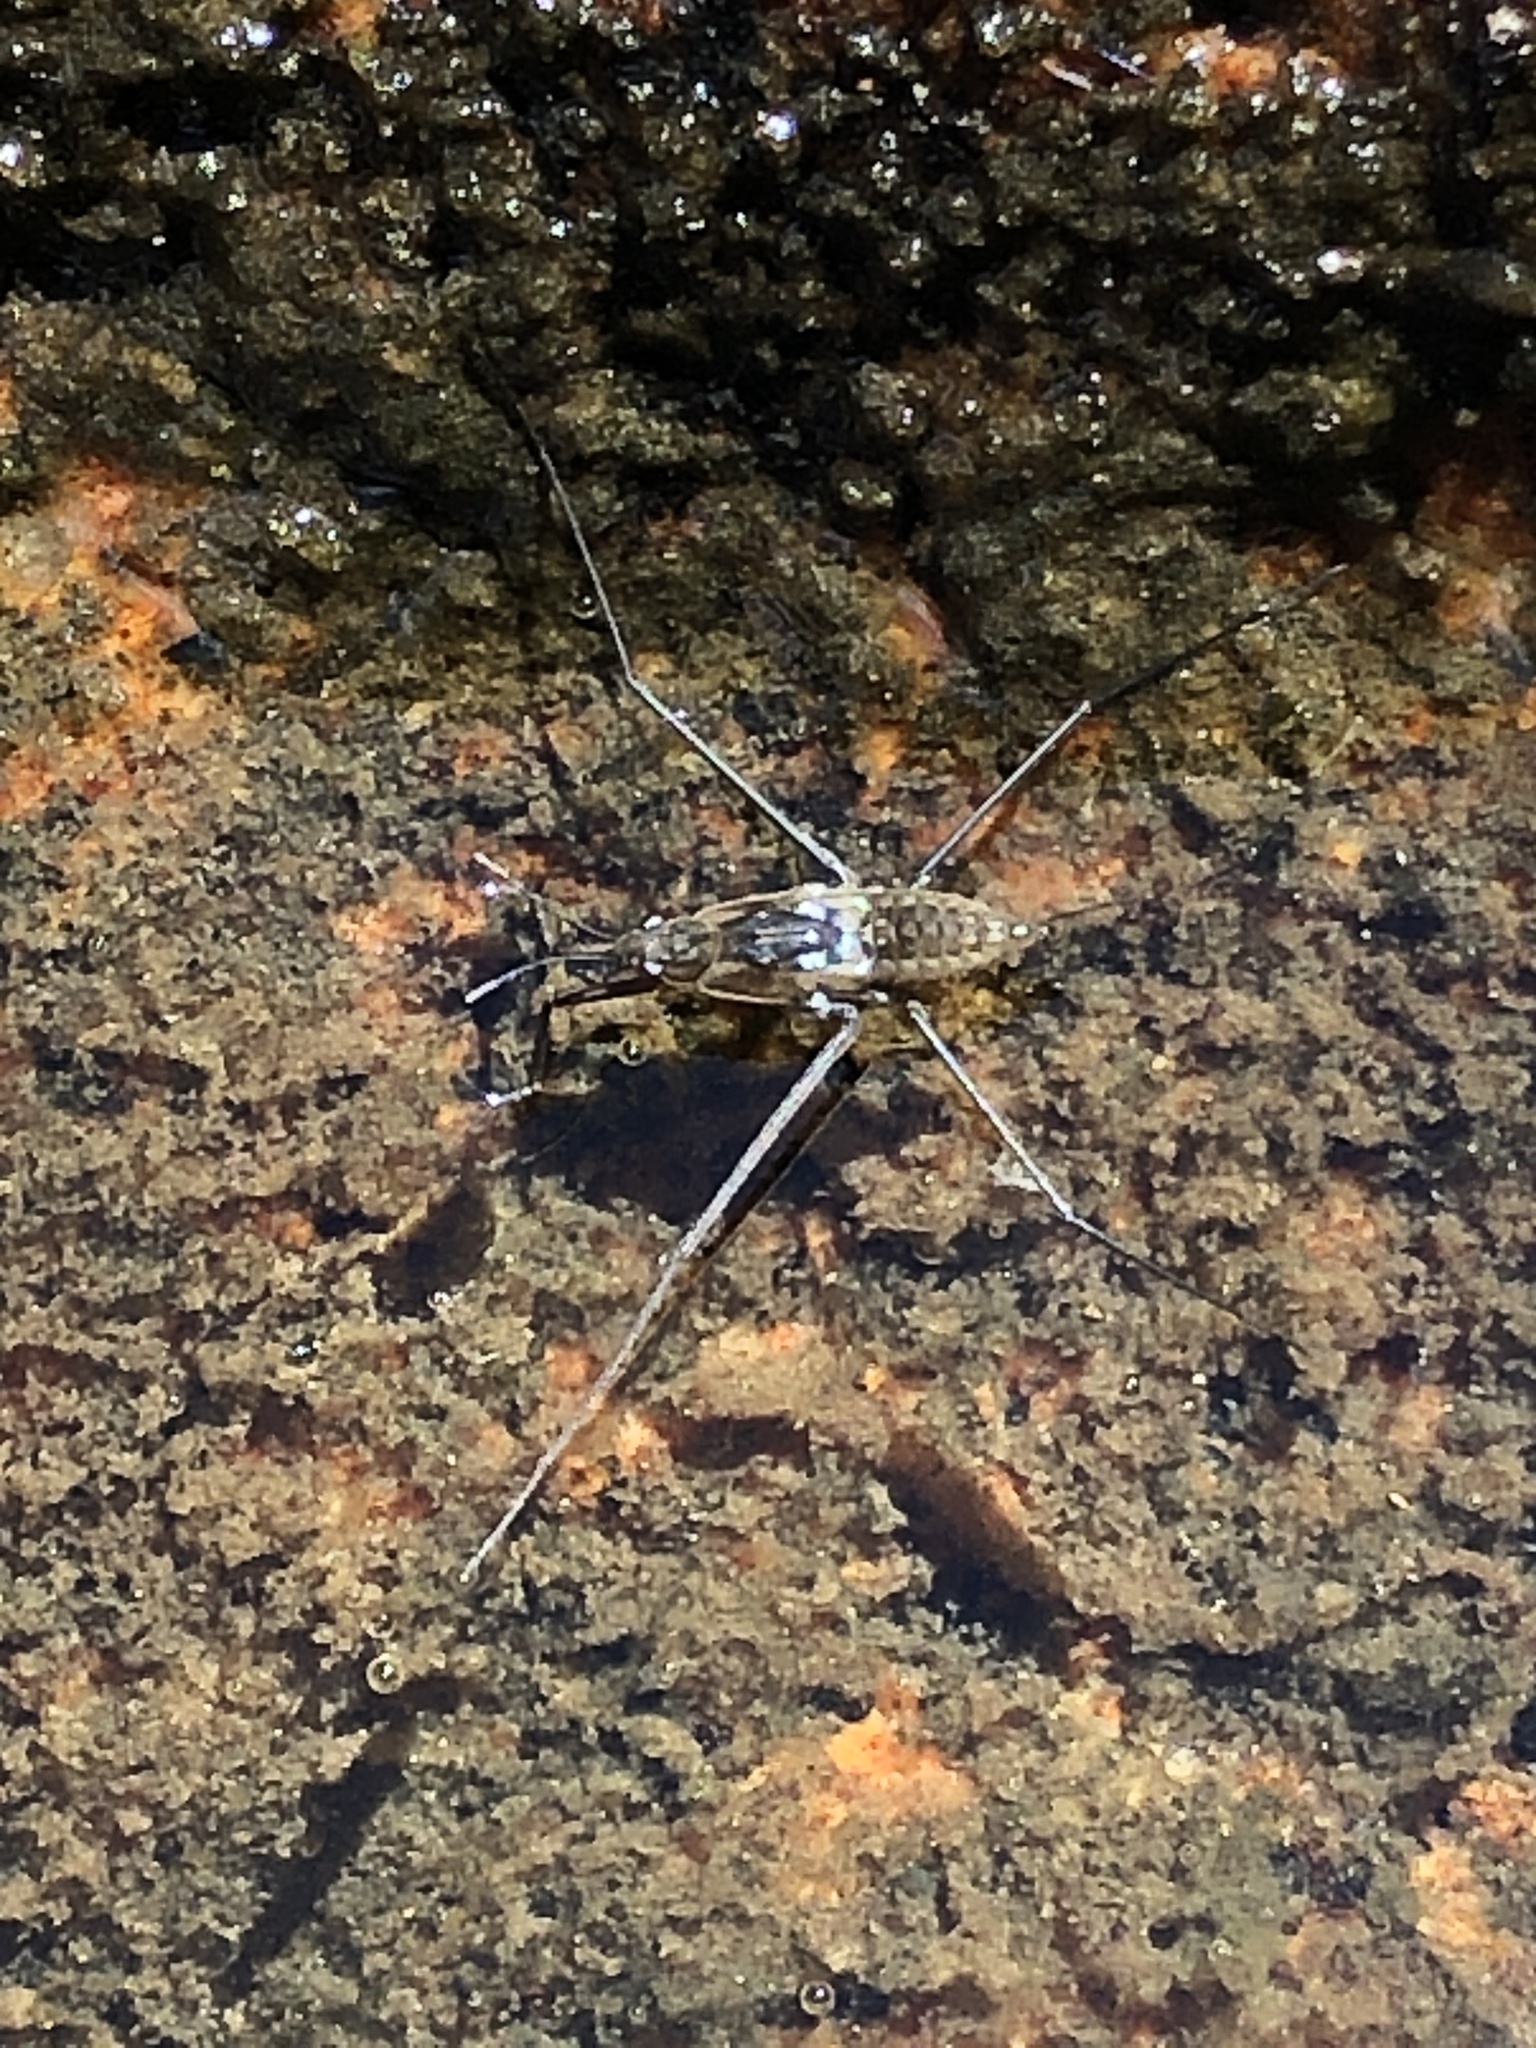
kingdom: Animalia
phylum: Arthropoda
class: Insecta
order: Hemiptera
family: Gerridae
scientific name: Gerridae
